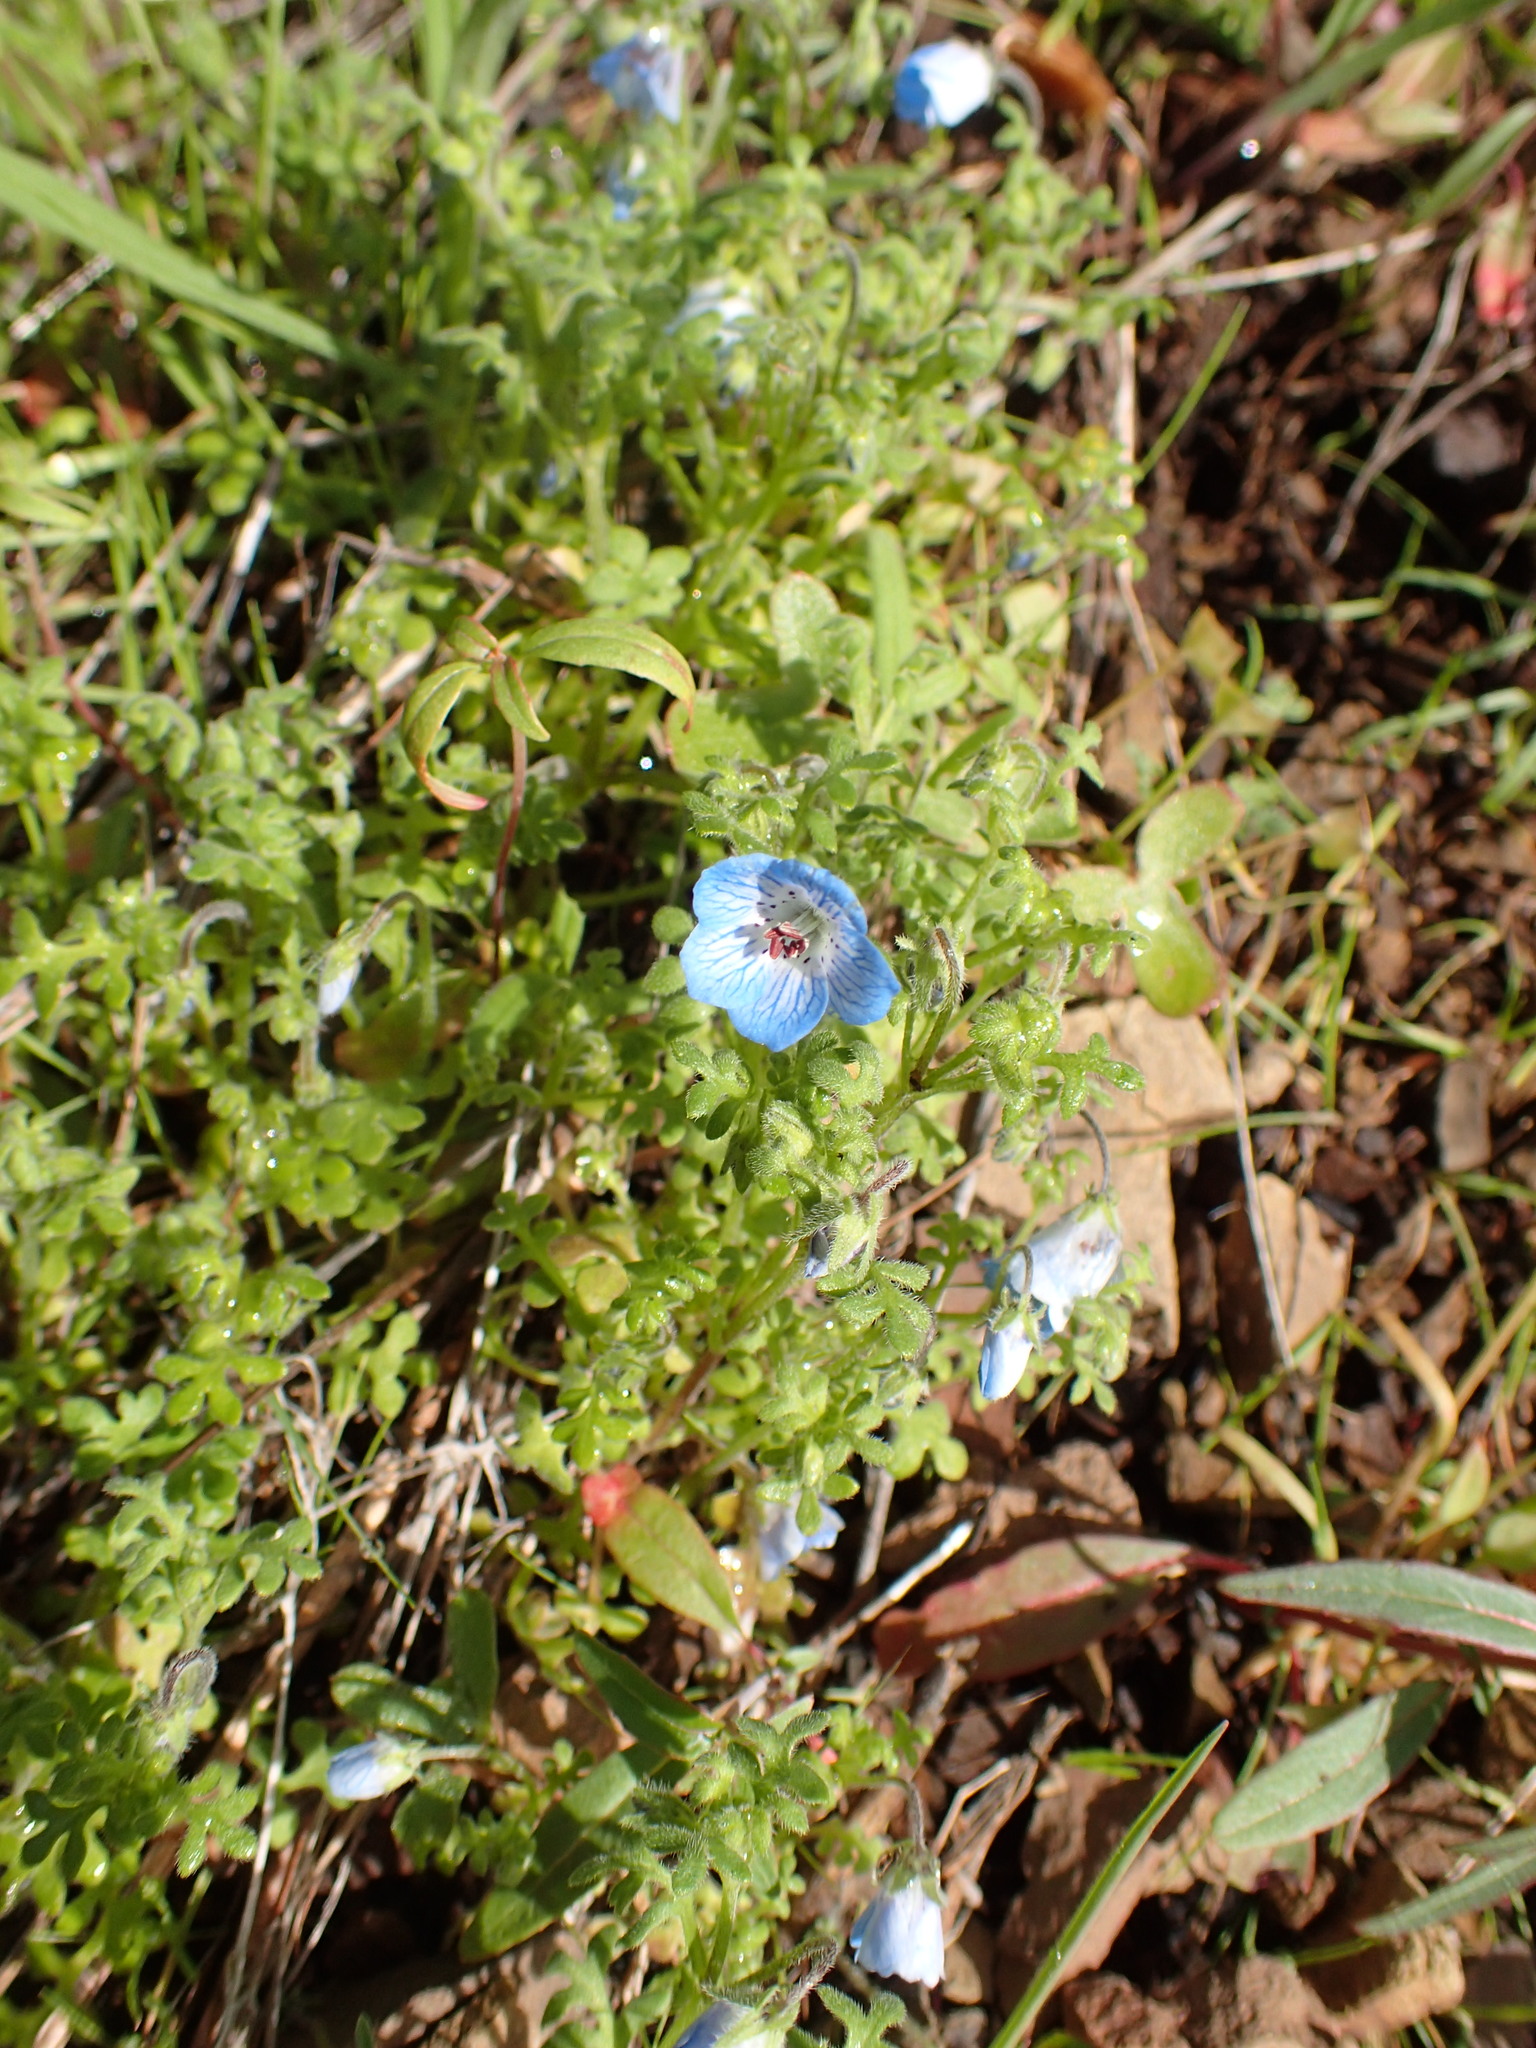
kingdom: Plantae
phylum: Tracheophyta
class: Magnoliopsida
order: Boraginales
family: Hydrophyllaceae
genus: Nemophila
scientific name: Nemophila menziesii
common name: Baby's-blue-eyes
